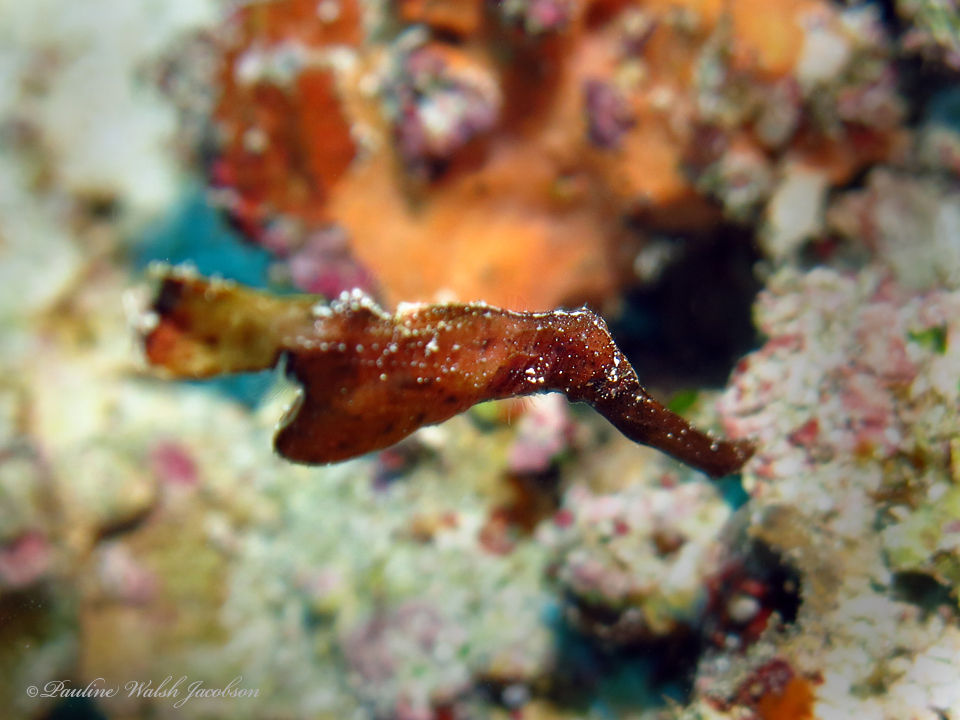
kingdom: Animalia
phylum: Chordata
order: Syngnathiformes
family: Solenostomidae
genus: Solenostomus
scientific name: Solenostomus cyanopterus
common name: Blue-finned ghost pipefish
